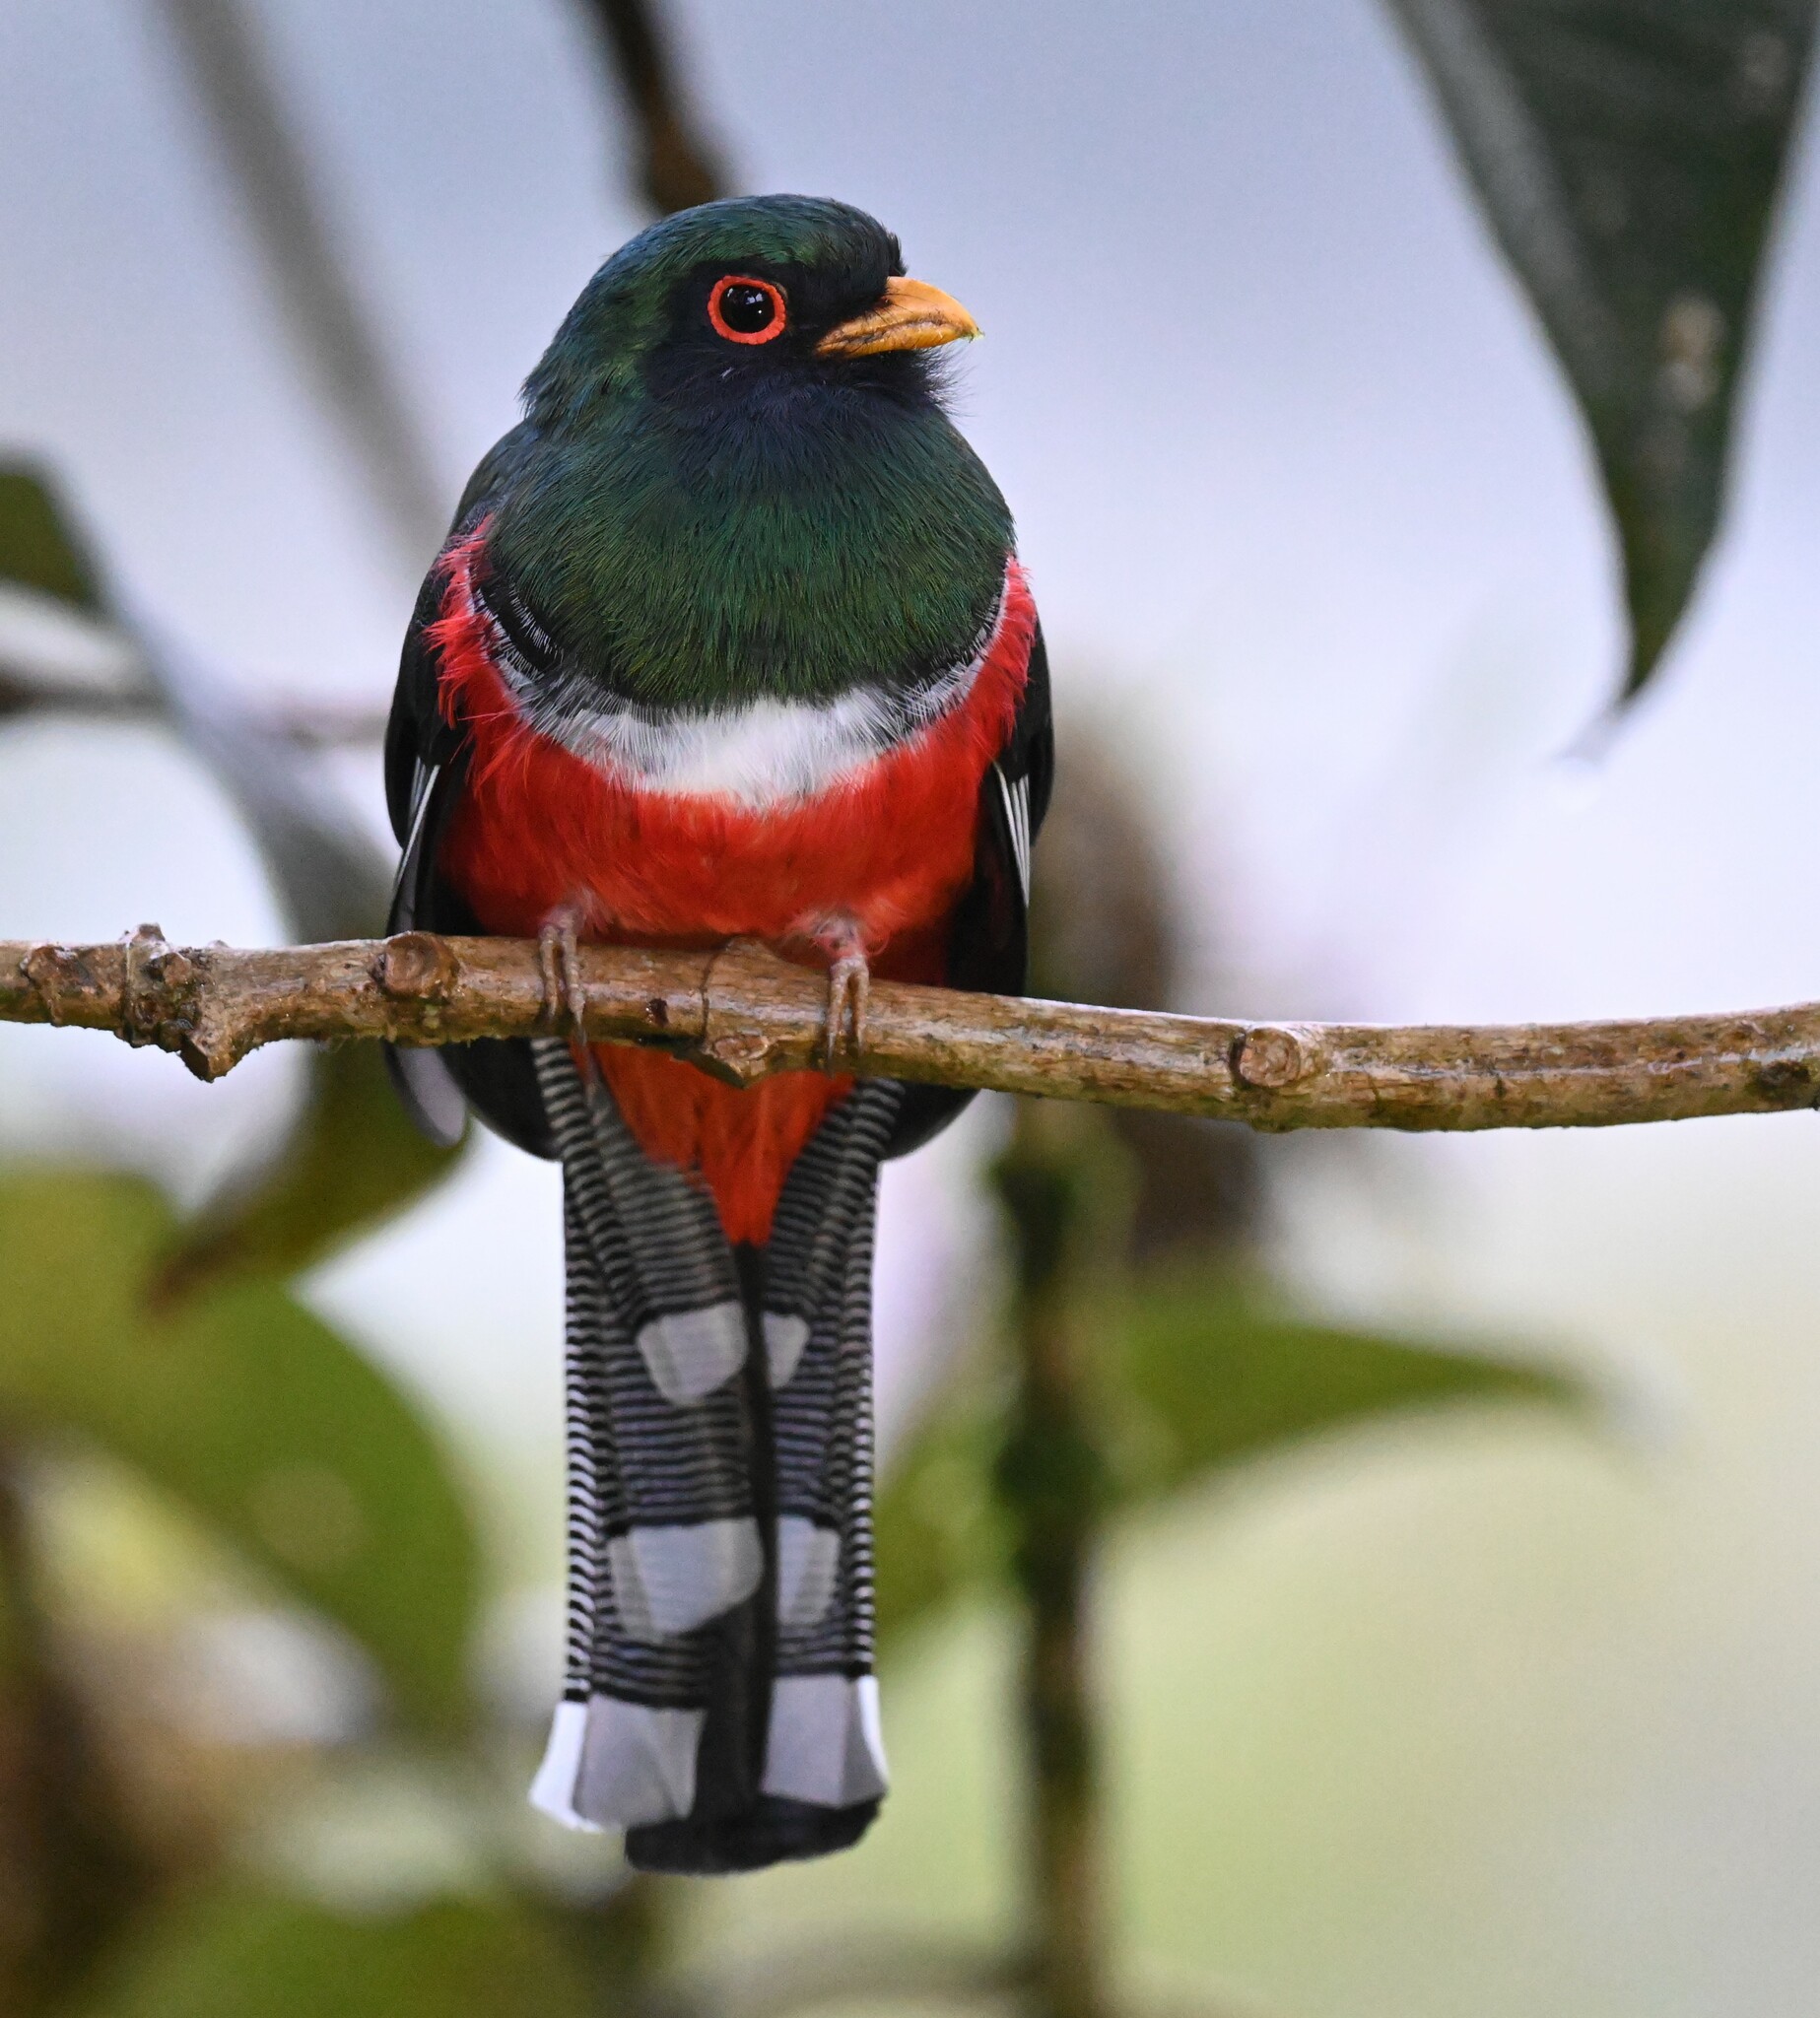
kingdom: Animalia
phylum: Chordata
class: Aves
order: Trogoniformes
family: Trogonidae
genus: Trogon
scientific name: Trogon personatus
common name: Masked trogon
